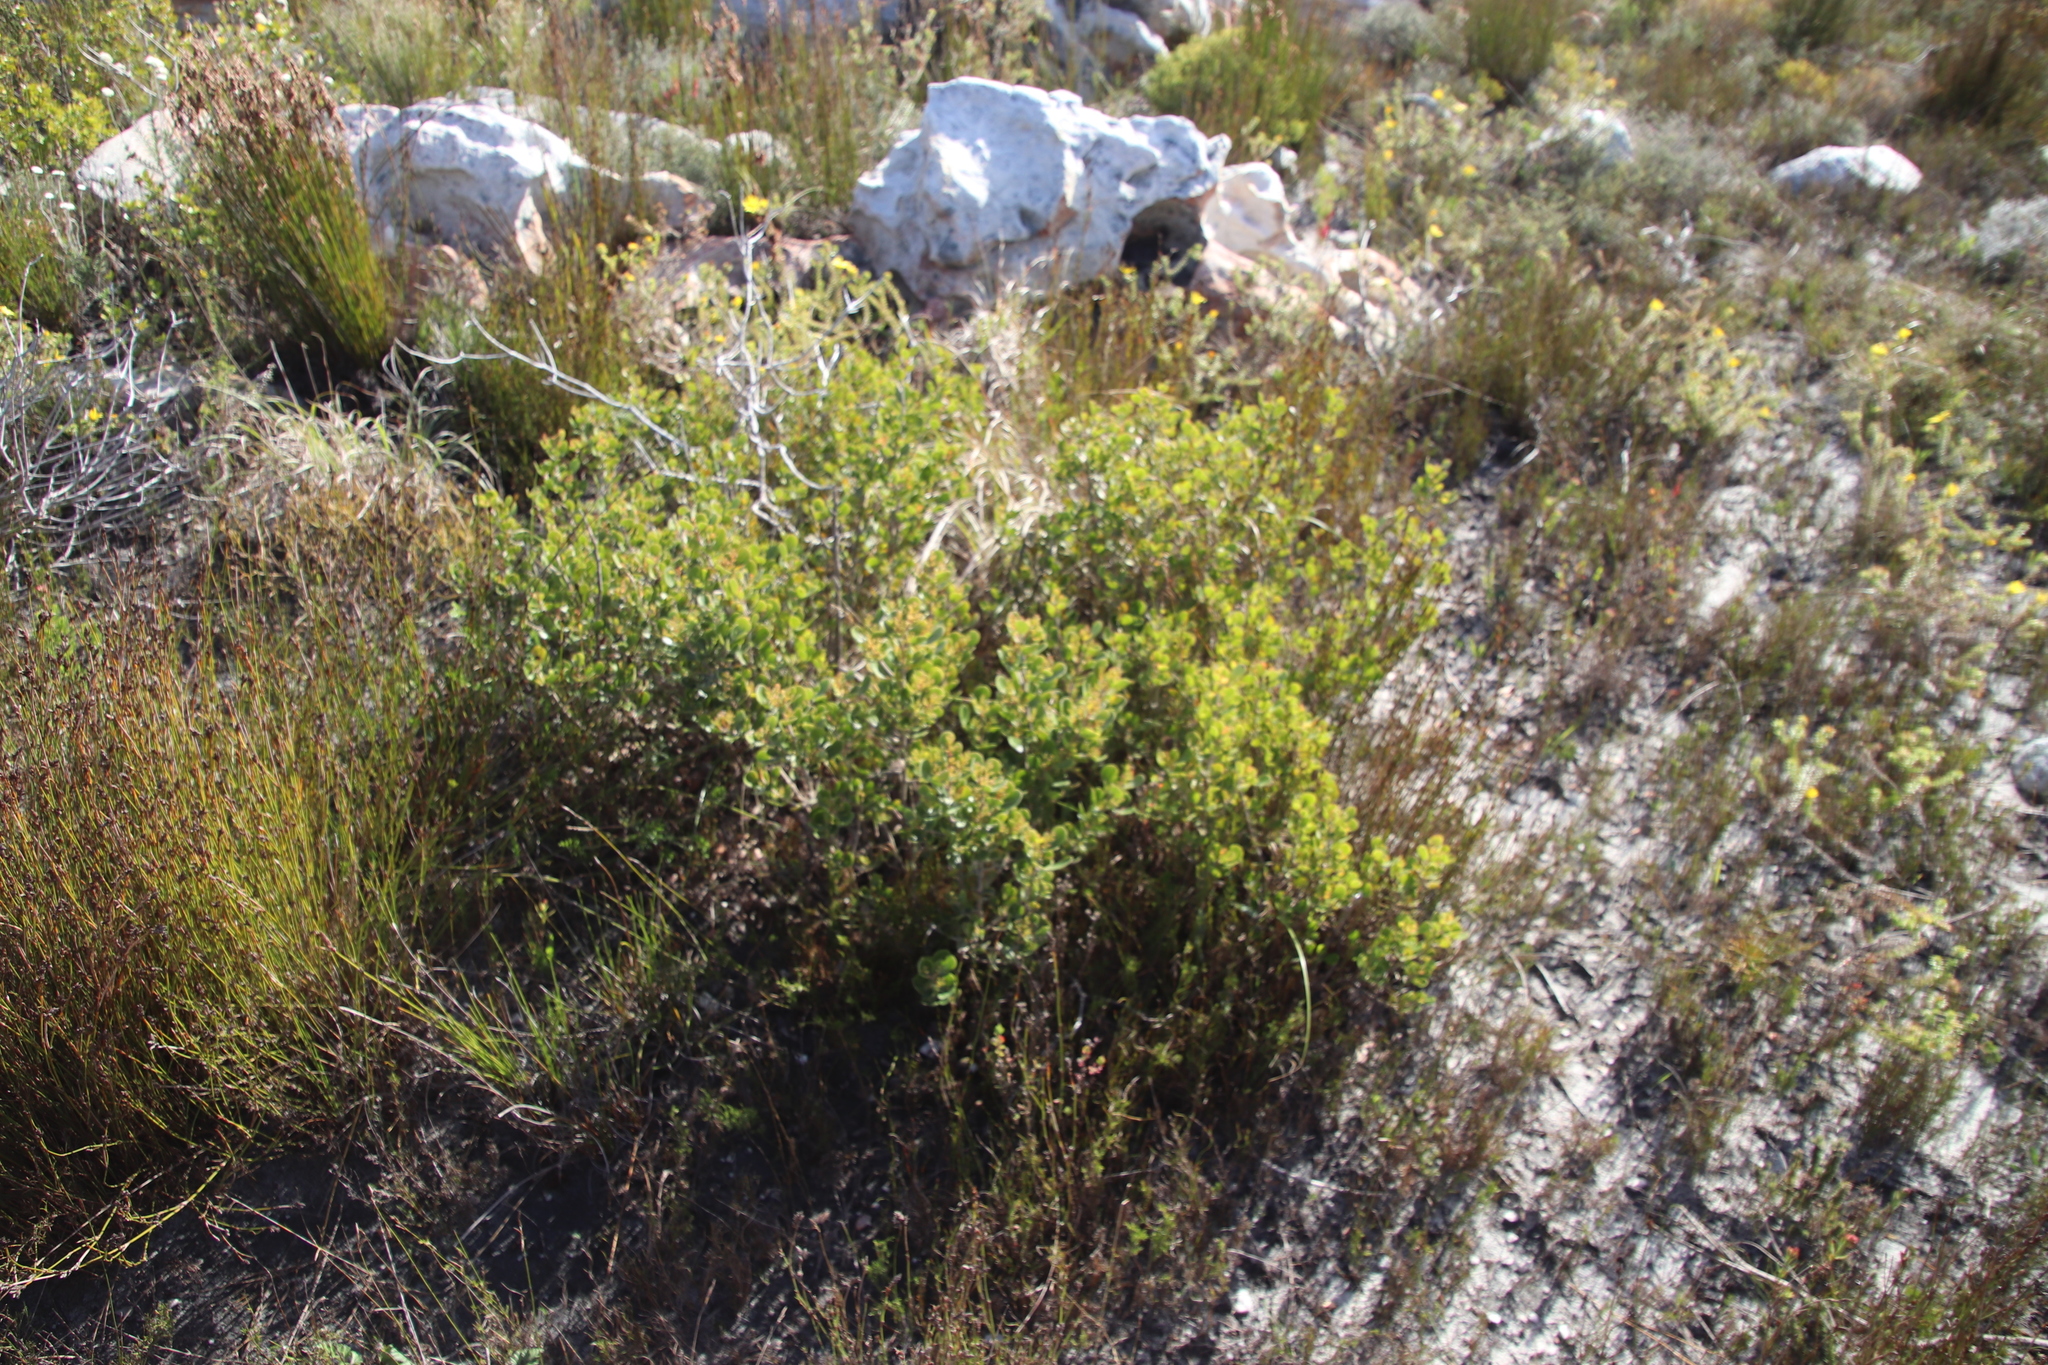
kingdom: Plantae
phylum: Tracheophyta
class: Magnoliopsida
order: Sapindales
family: Anacardiaceae
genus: Searsia
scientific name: Searsia lucida
